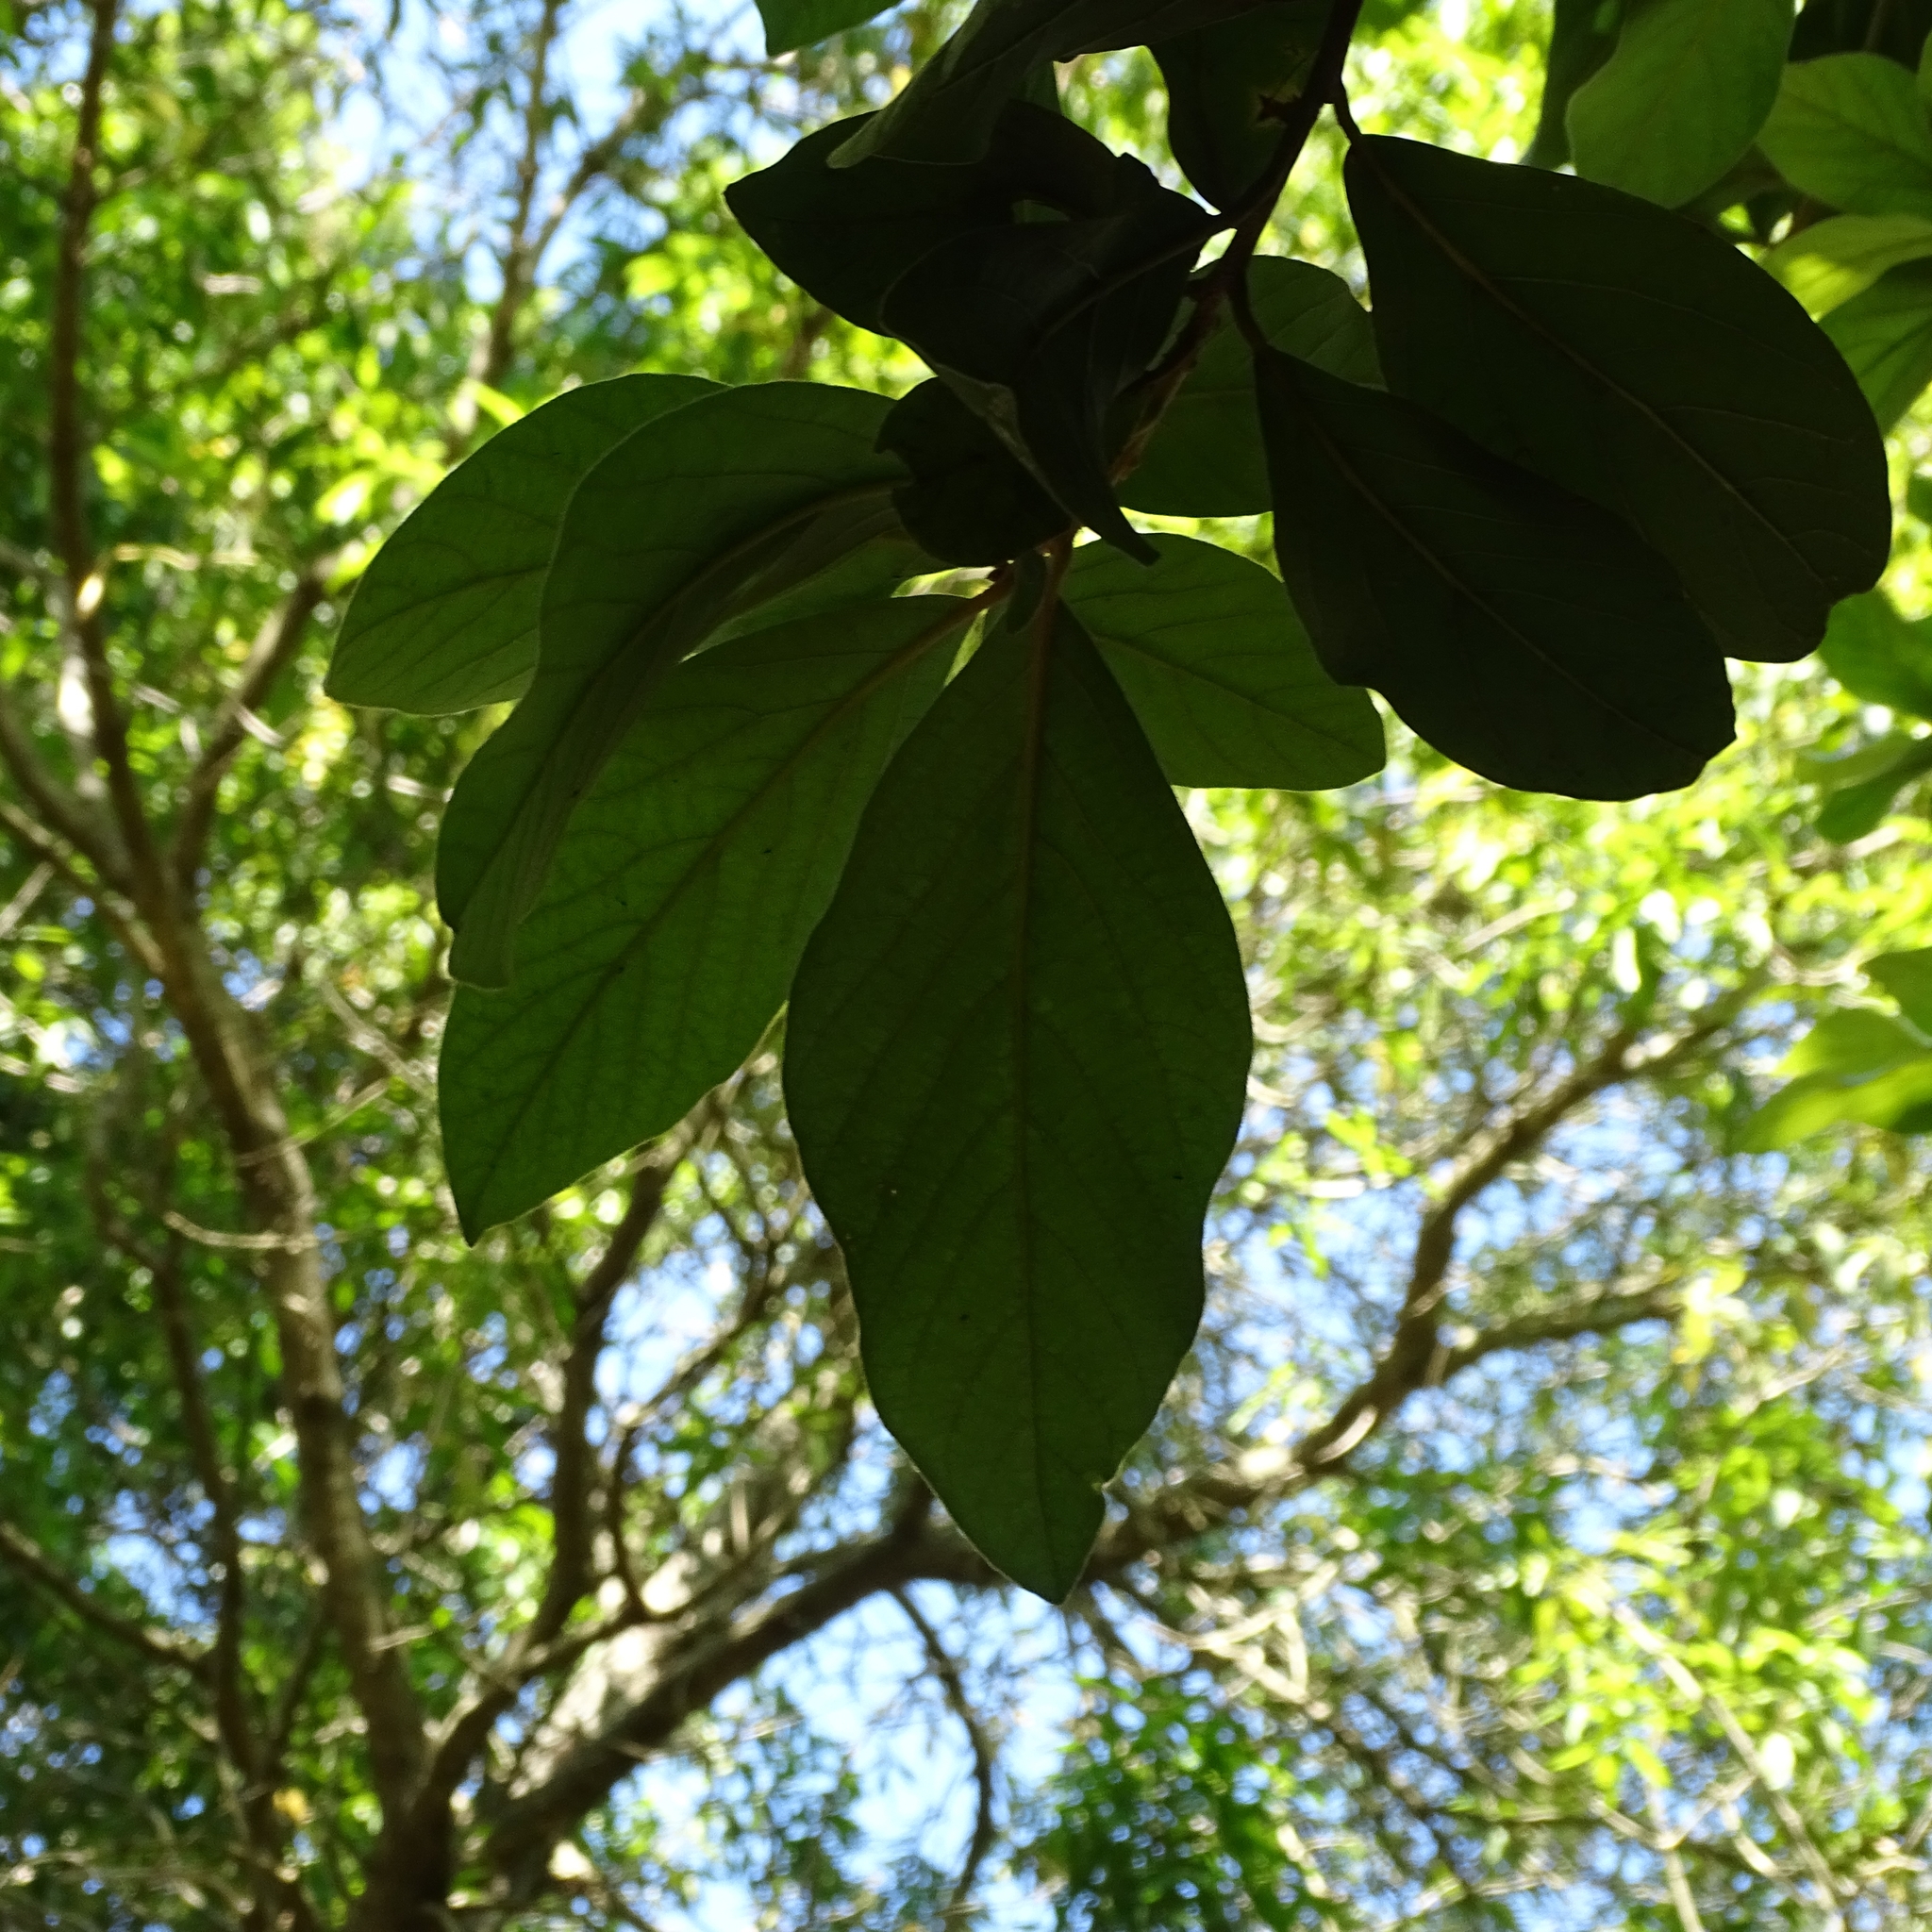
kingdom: Plantae
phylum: Tracheophyta
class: Magnoliopsida
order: Laurales
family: Lauraceae
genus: Persea
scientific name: Persea lingue
